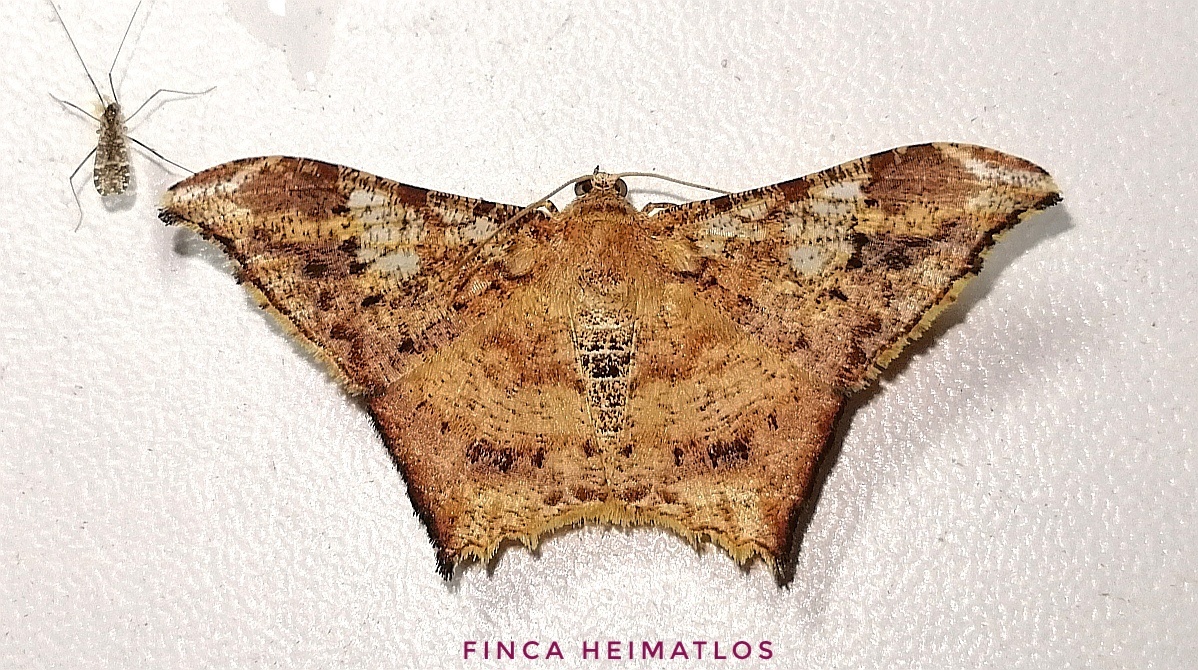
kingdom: Animalia
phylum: Arthropoda
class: Insecta
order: Lepidoptera
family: Geometridae
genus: Macaria
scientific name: Macaria acutaria
